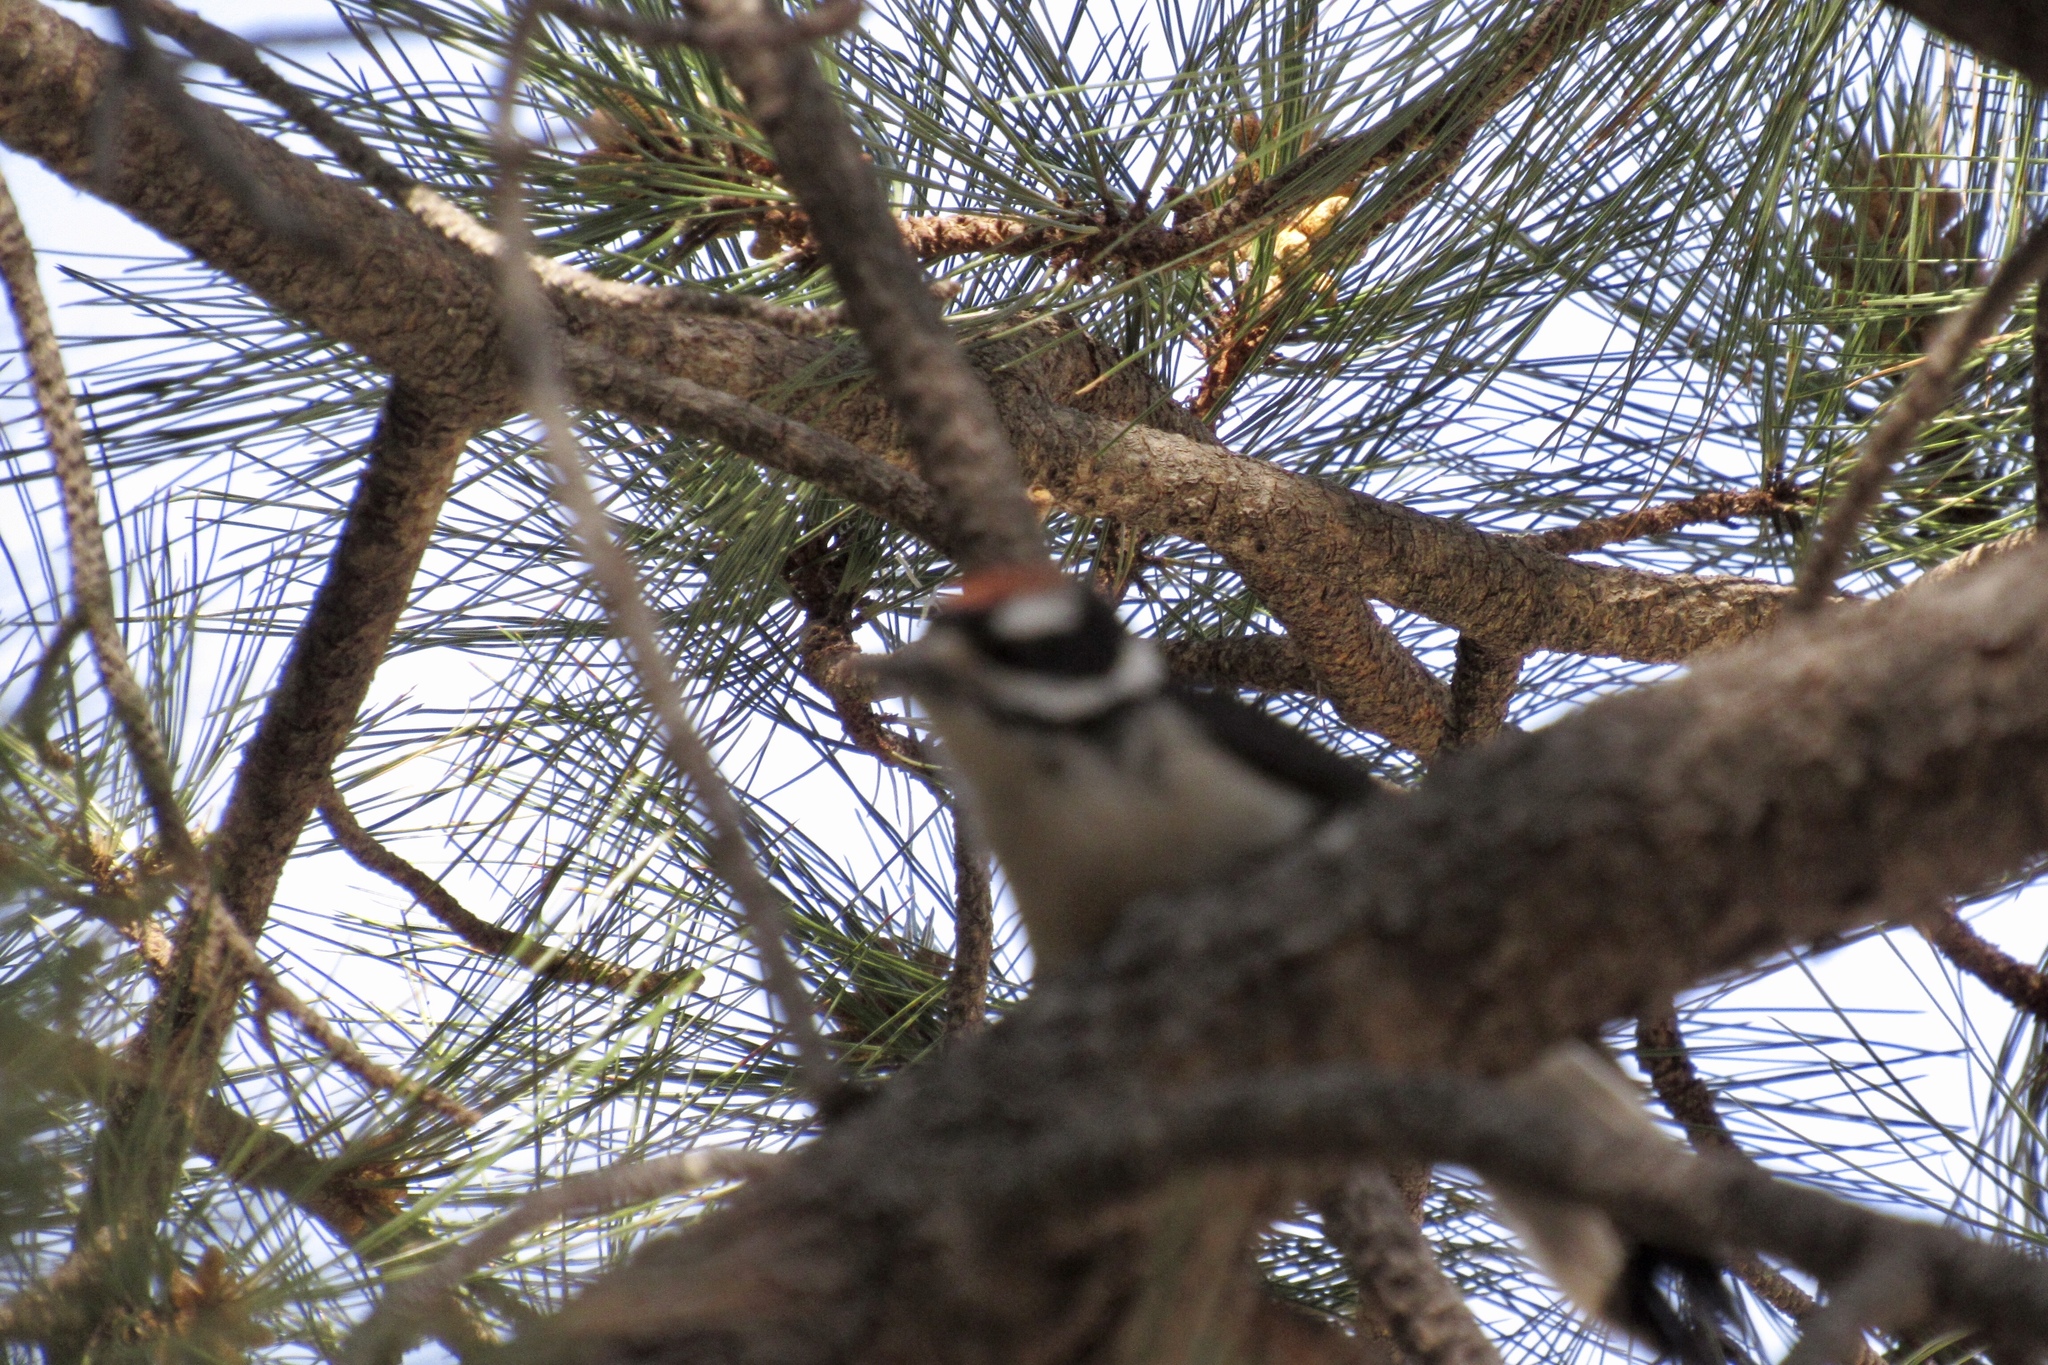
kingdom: Animalia
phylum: Chordata
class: Aves
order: Piciformes
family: Picidae
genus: Leuconotopicus
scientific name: Leuconotopicus villosus
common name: Hairy woodpecker
